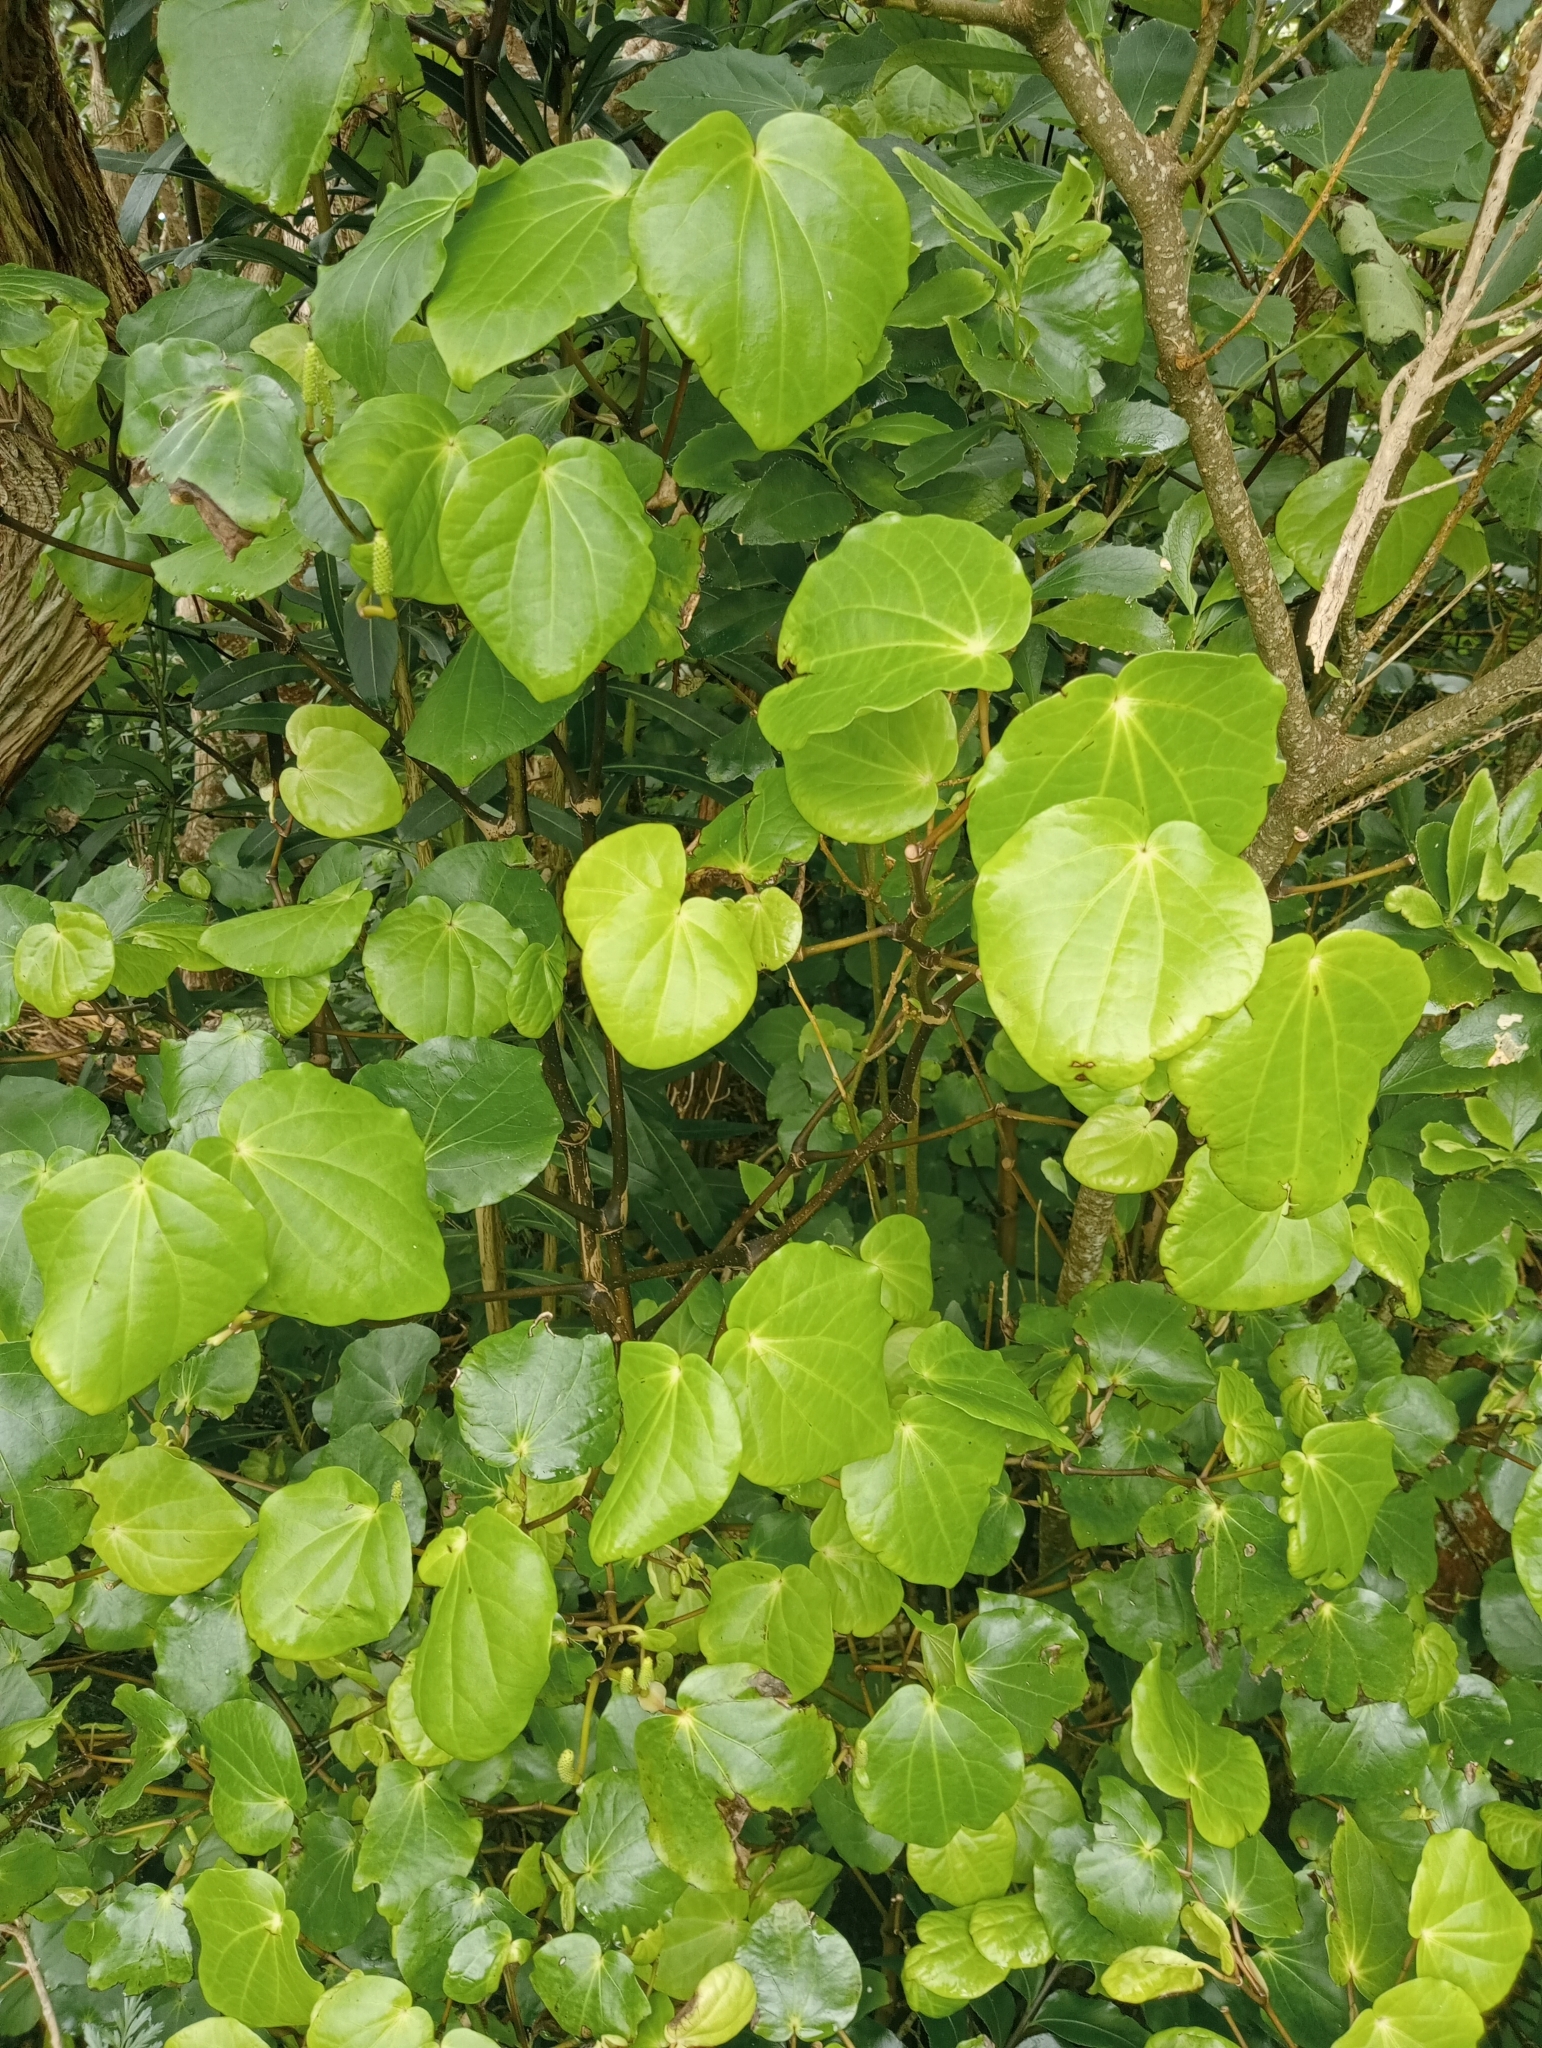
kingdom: Plantae
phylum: Tracheophyta
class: Magnoliopsida
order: Piperales
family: Piperaceae
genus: Macropiper
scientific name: Macropiper excelsum
